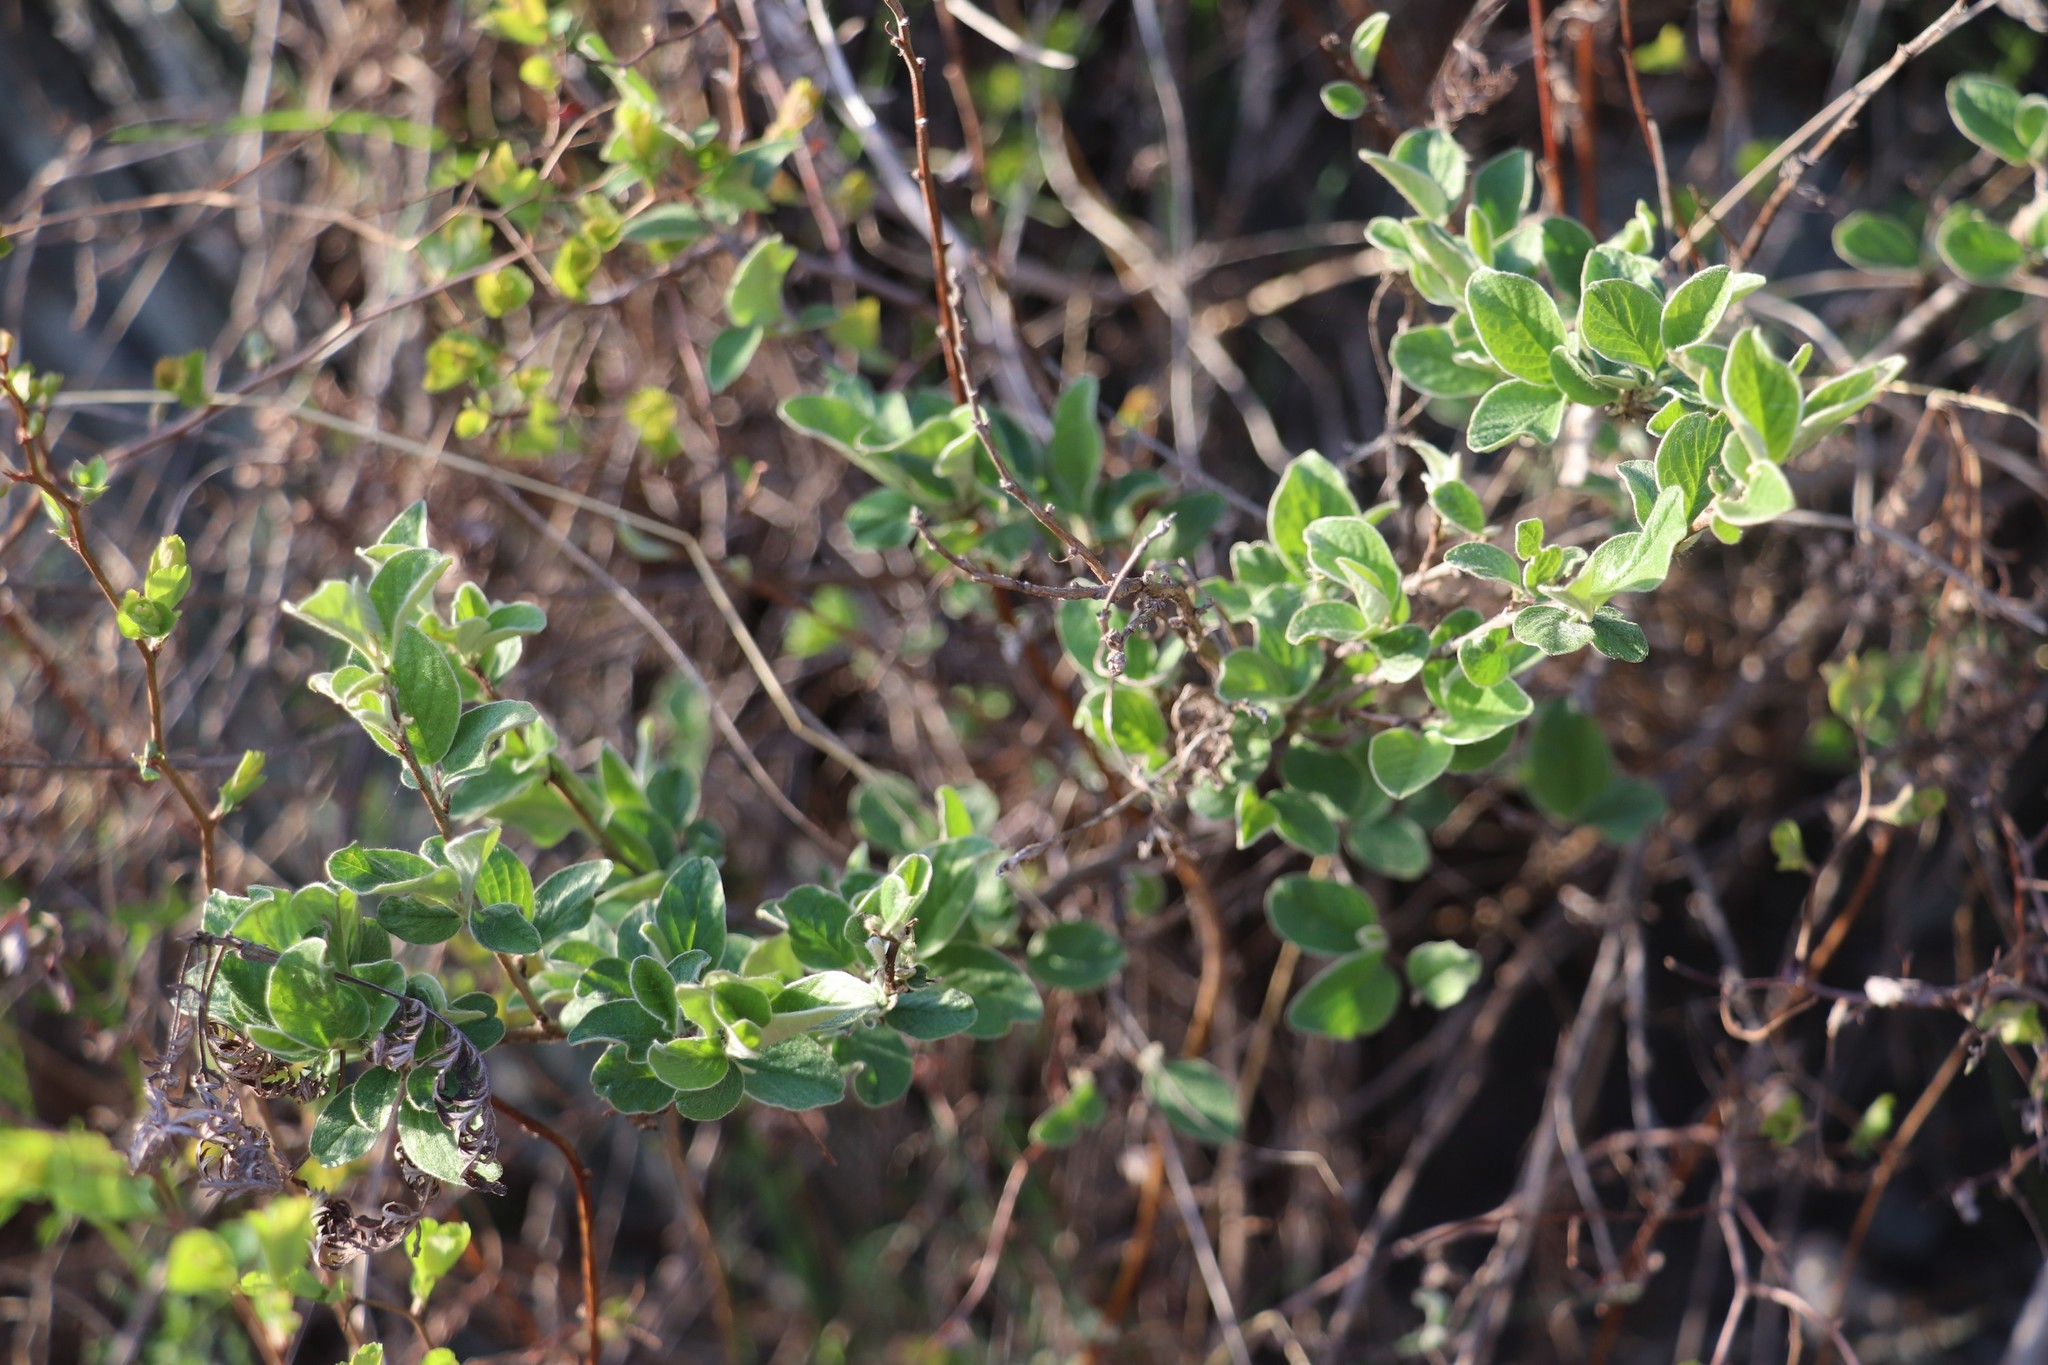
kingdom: Plantae
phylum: Tracheophyta
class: Magnoliopsida
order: Rosales
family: Rosaceae
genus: Cotoneaster
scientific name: Cotoneaster melanocarpus
